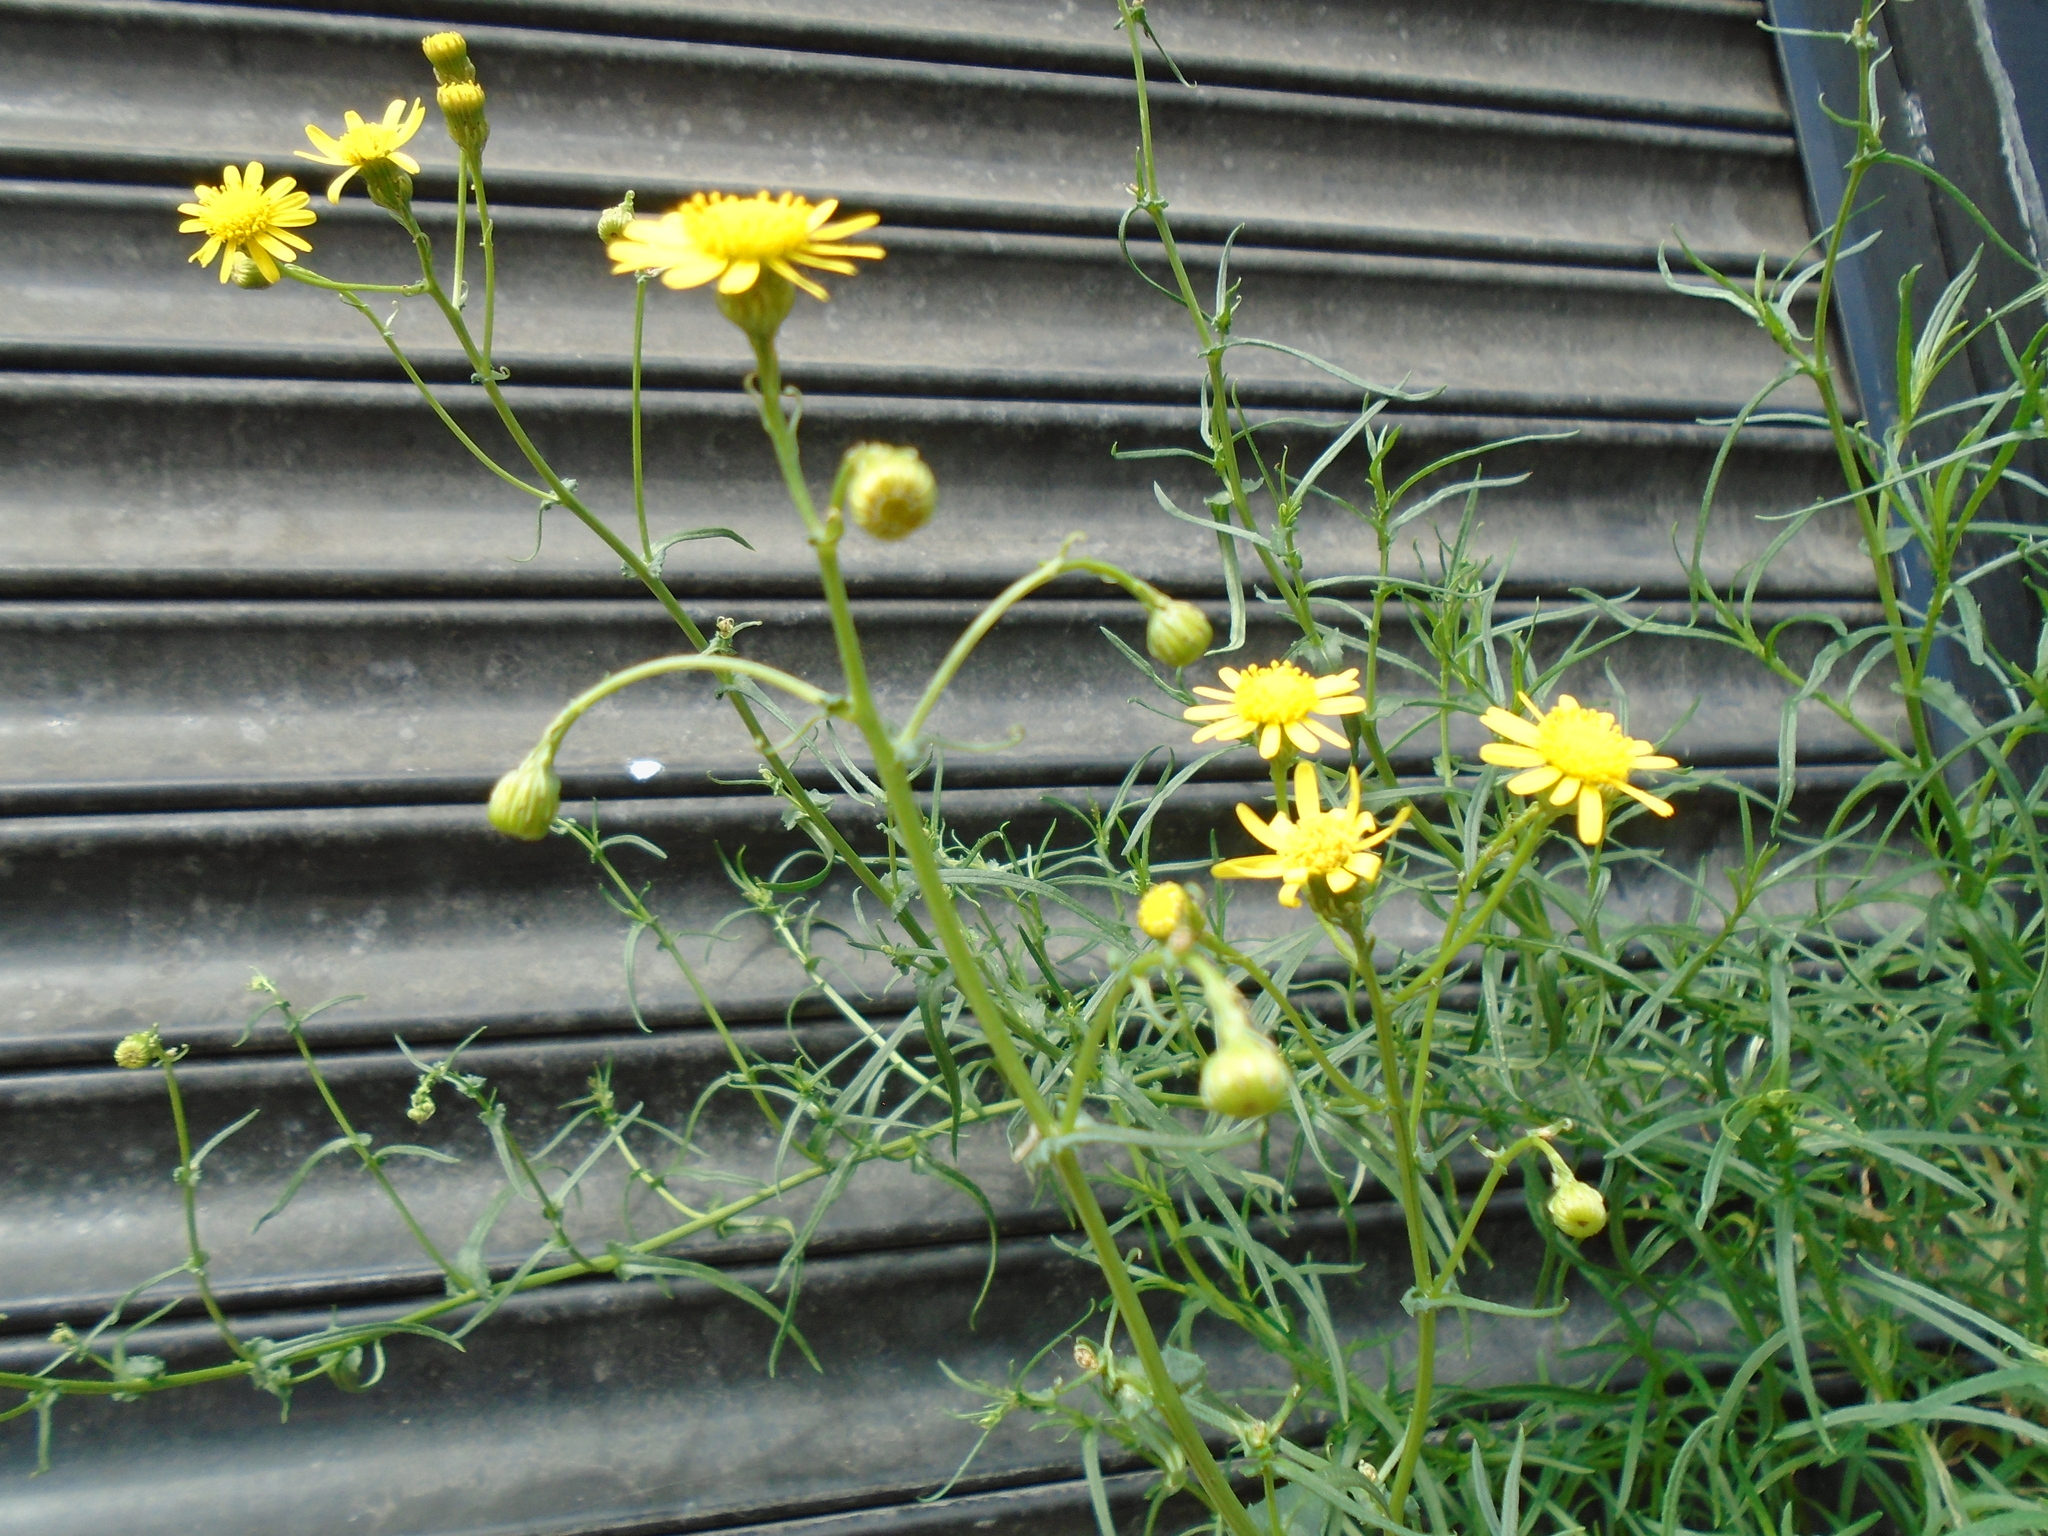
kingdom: Plantae
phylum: Tracheophyta
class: Magnoliopsida
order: Asterales
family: Asteraceae
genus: Senecio
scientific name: Senecio inaequidens
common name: Narrow-leaved ragwort
